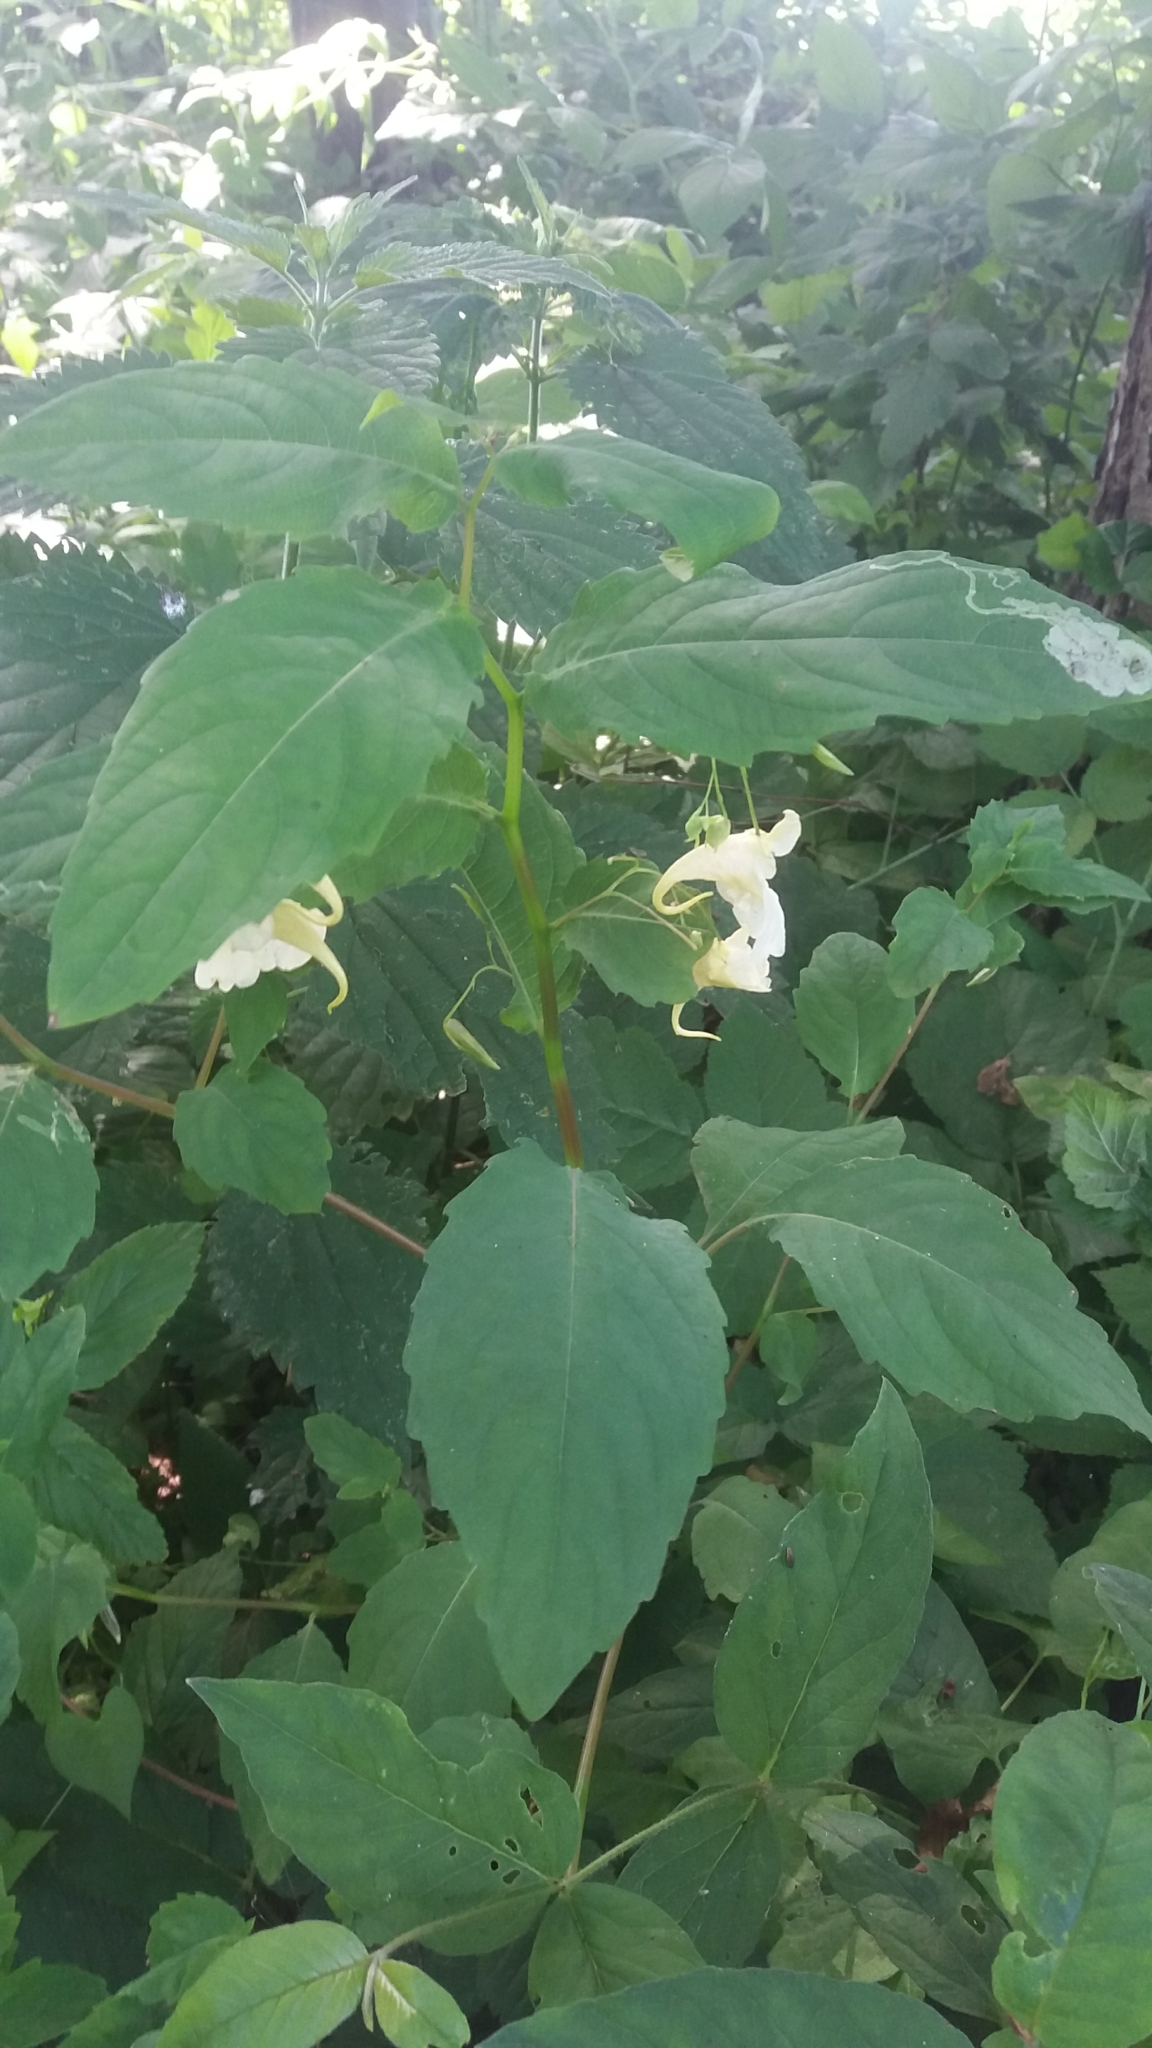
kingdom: Plantae
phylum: Tracheophyta
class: Magnoliopsida
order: Ericales
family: Balsaminaceae
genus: Impatiens
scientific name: Impatiens noli-tangere
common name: Touch-me-not balsam
